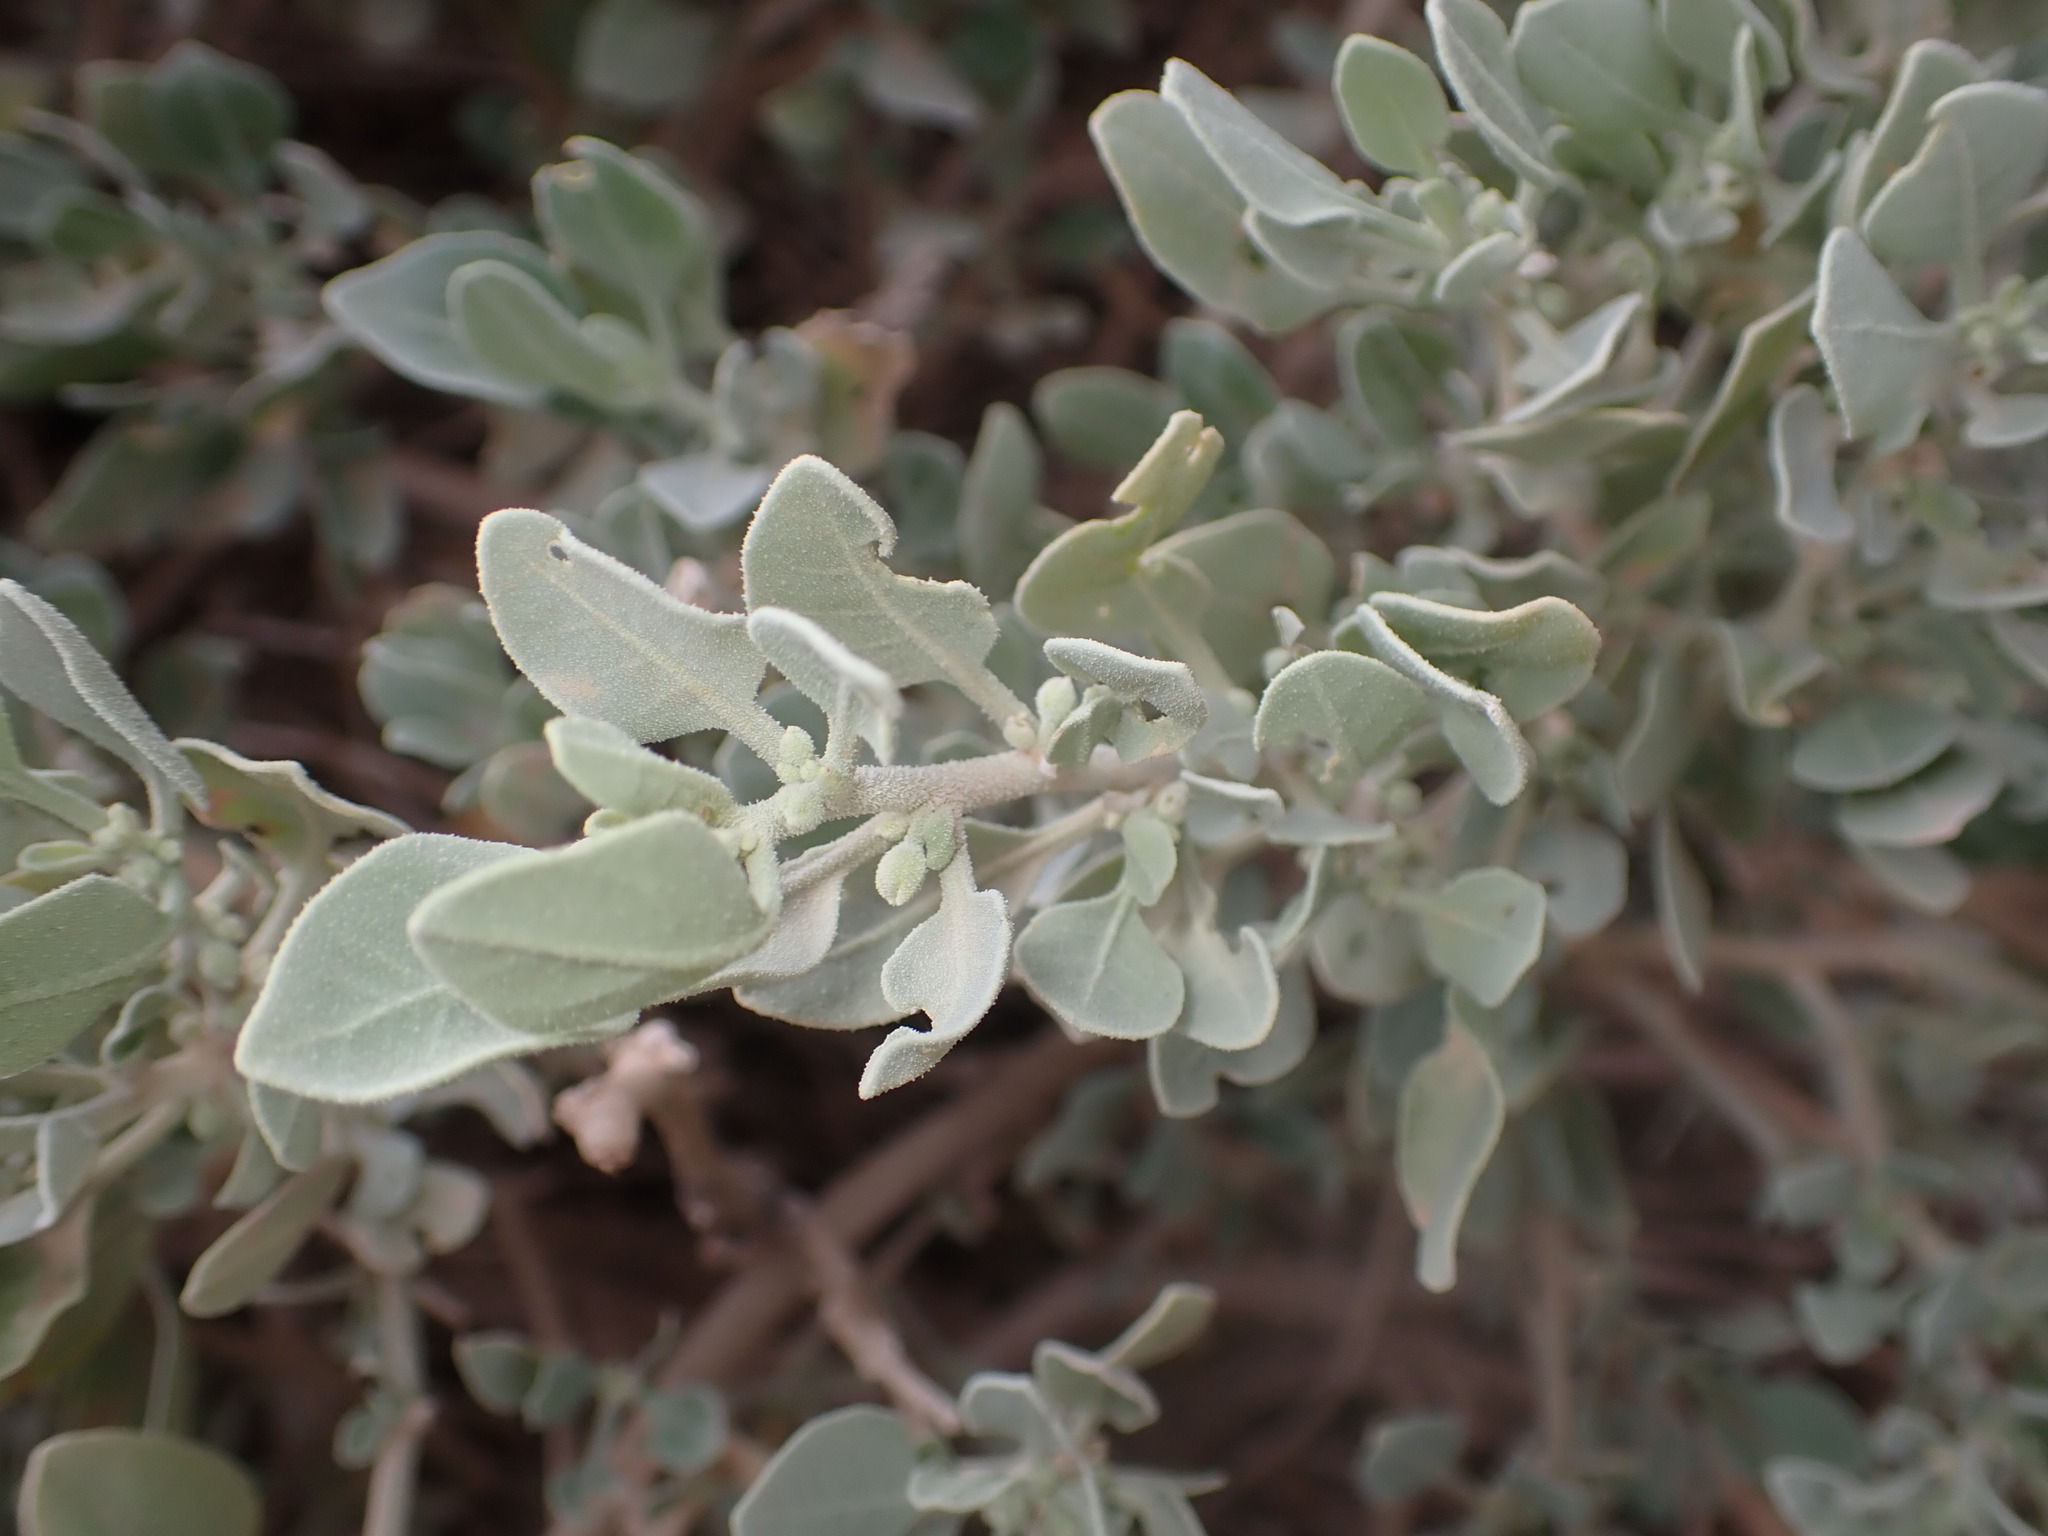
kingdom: Plantae
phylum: Tracheophyta
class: Magnoliopsida
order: Solanales
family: Solanaceae
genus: Withania
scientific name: Withania adpressa
